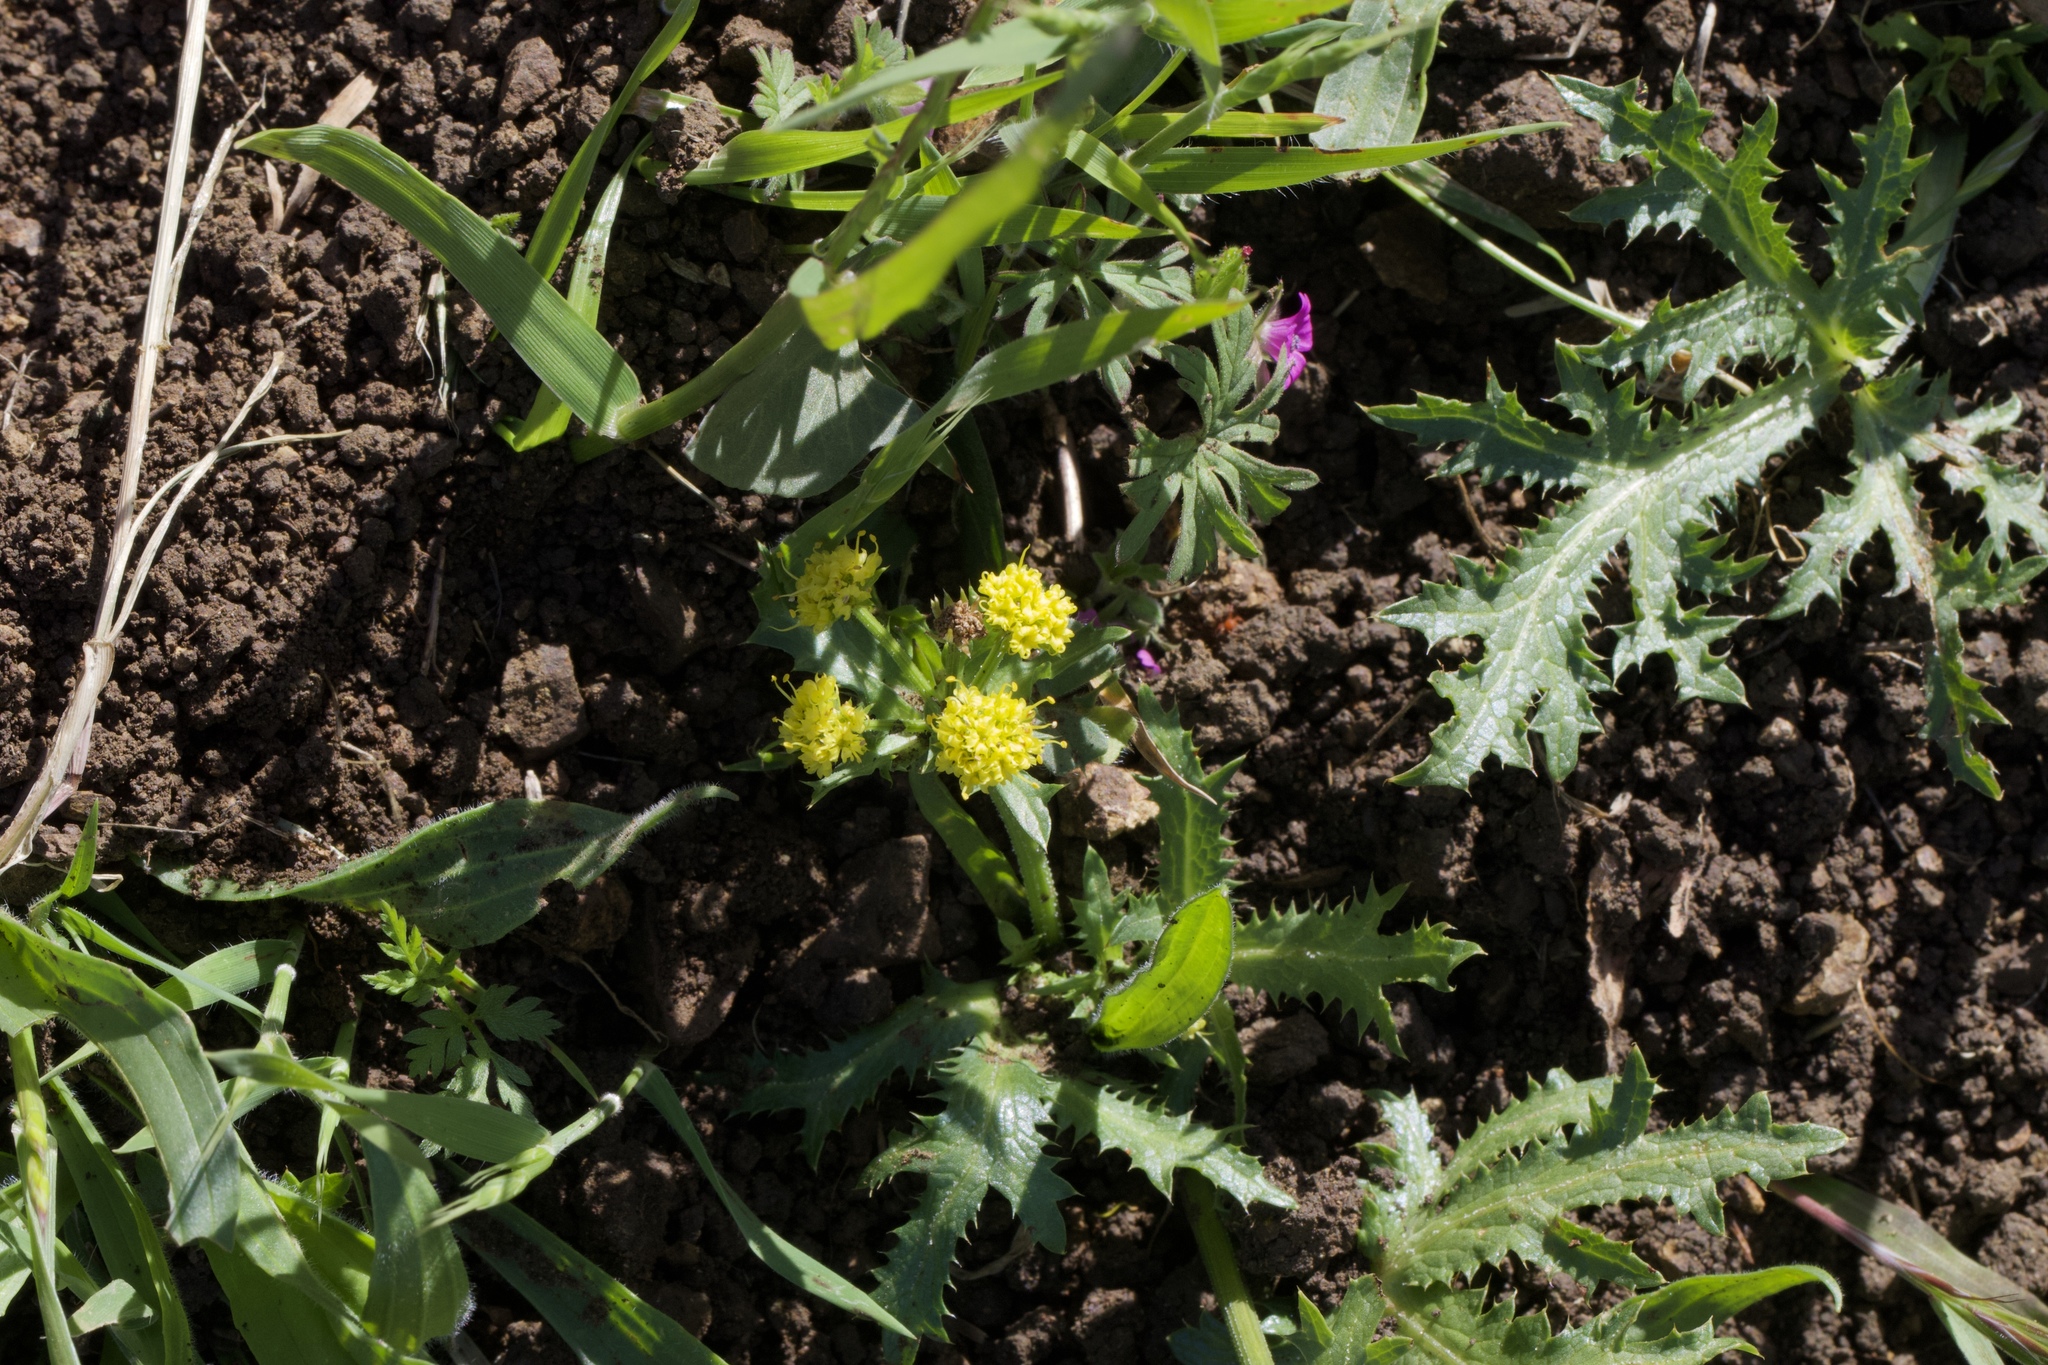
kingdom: Plantae
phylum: Tracheophyta
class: Magnoliopsida
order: Apiales
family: Apiaceae
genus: Sanicula
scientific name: Sanicula arguta
